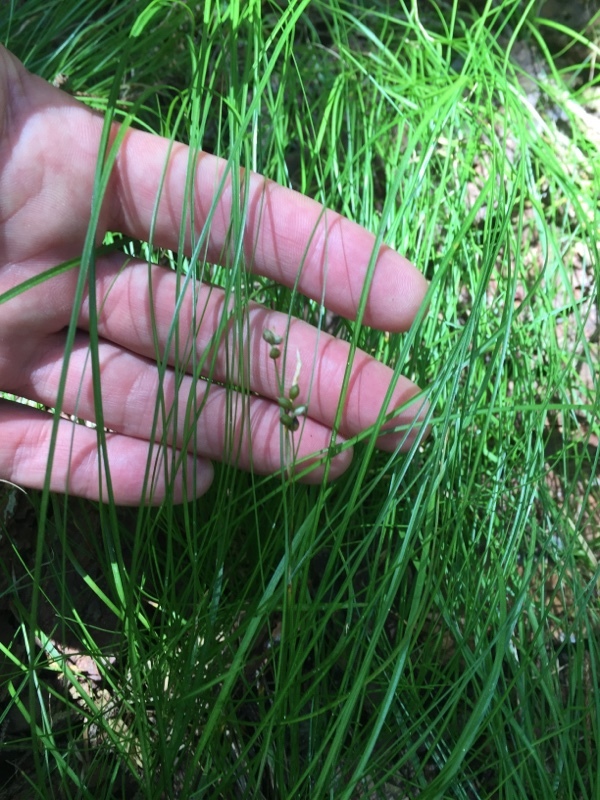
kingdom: Plantae
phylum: Tracheophyta
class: Liliopsida
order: Poales
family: Cyperaceae
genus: Carex
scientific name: Carex alba
